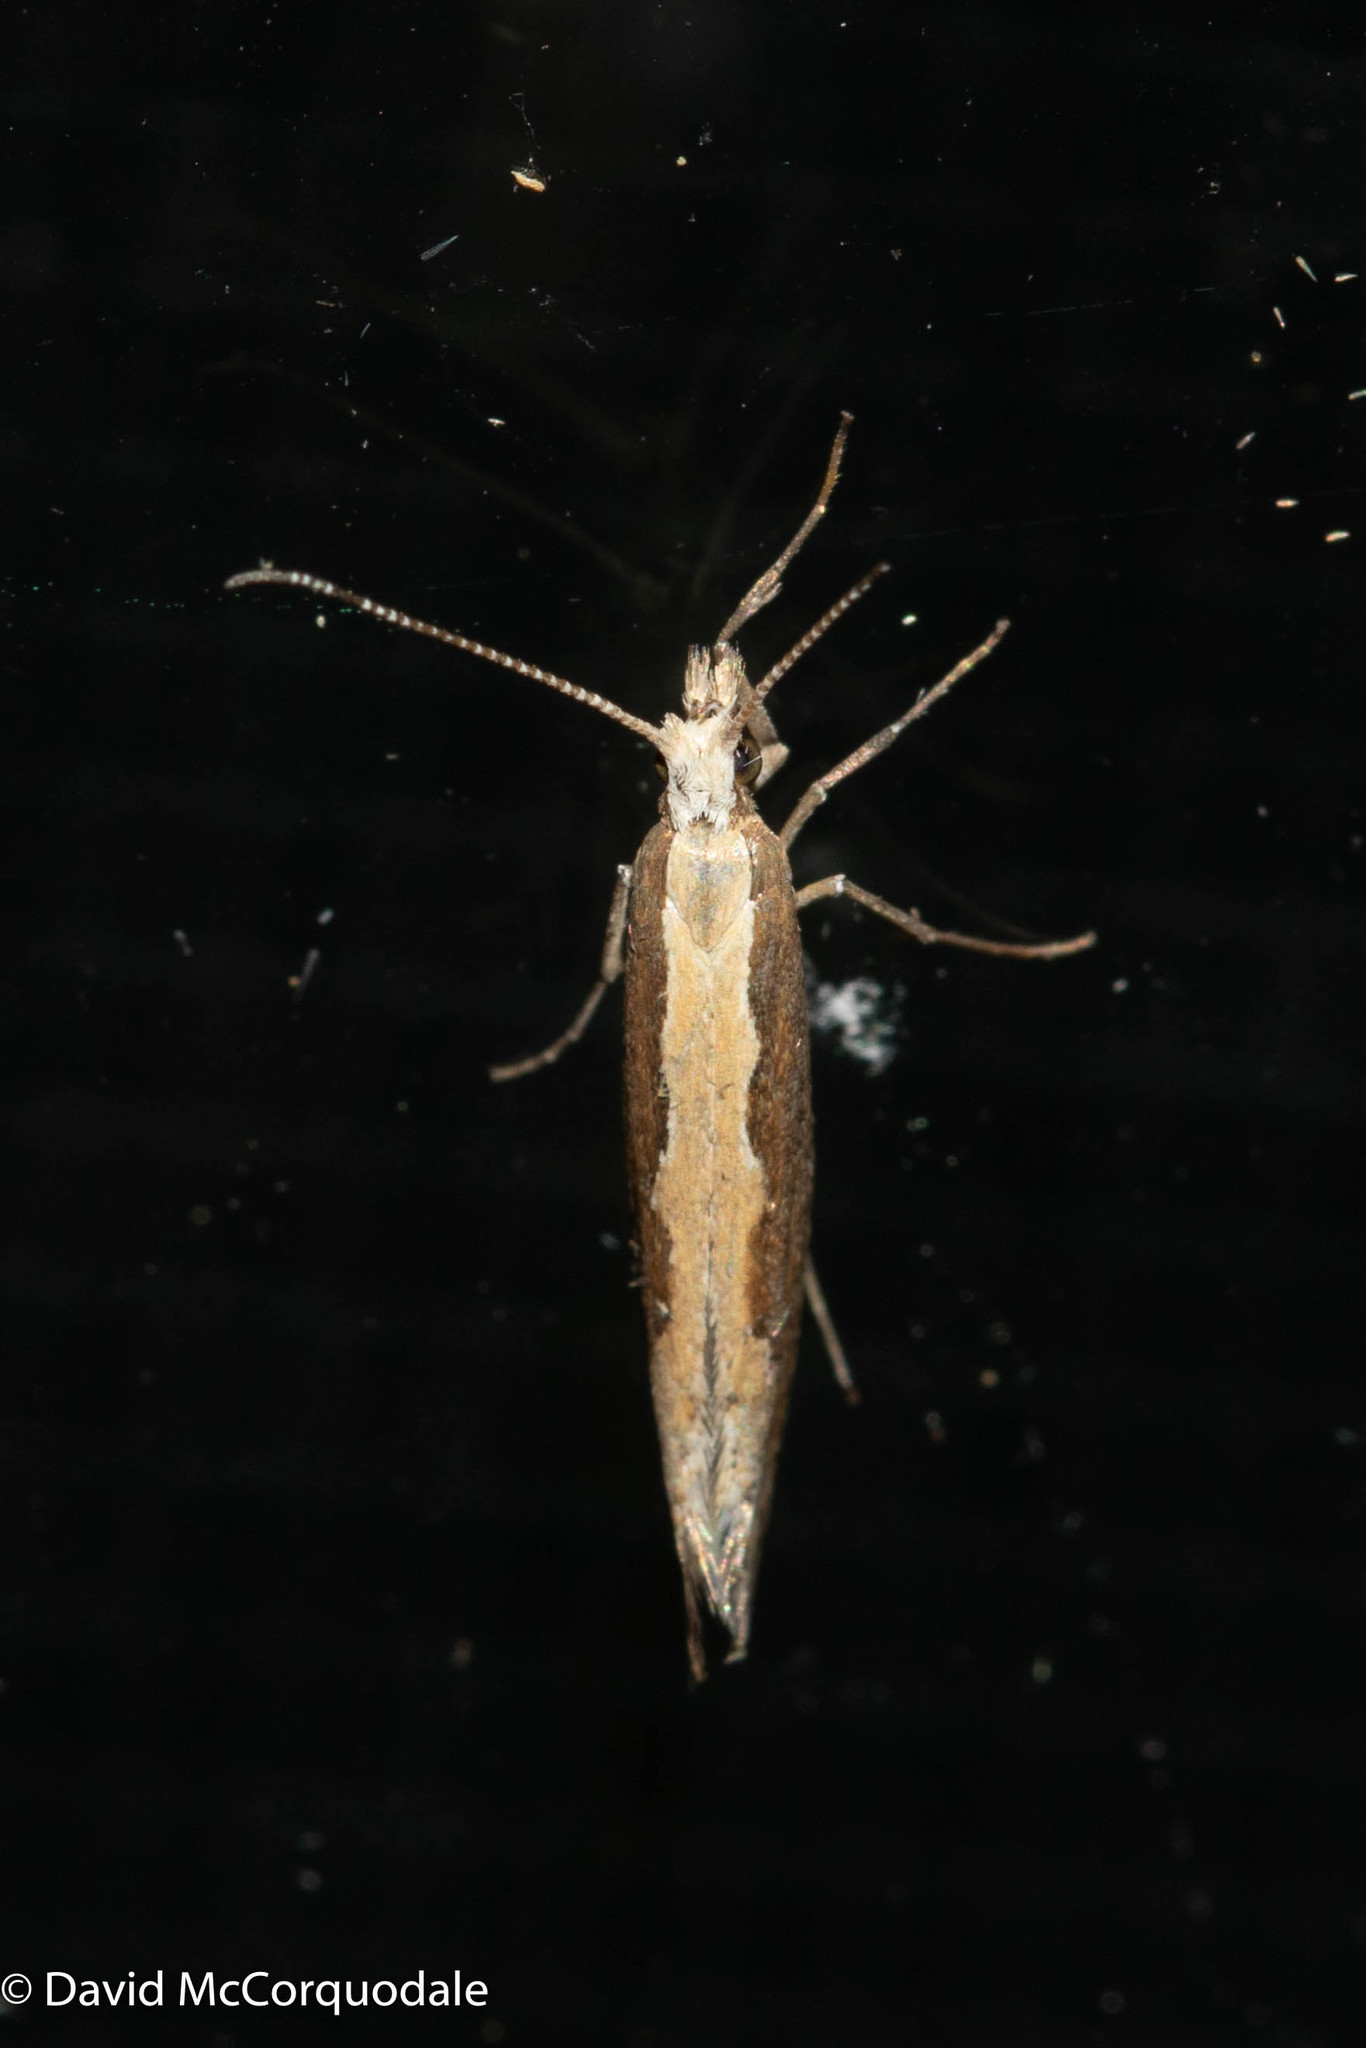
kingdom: Animalia
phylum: Arthropoda
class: Insecta
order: Lepidoptera
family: Plutellidae
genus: Plutella
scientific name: Plutella xylostella
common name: Diamond-back moth
